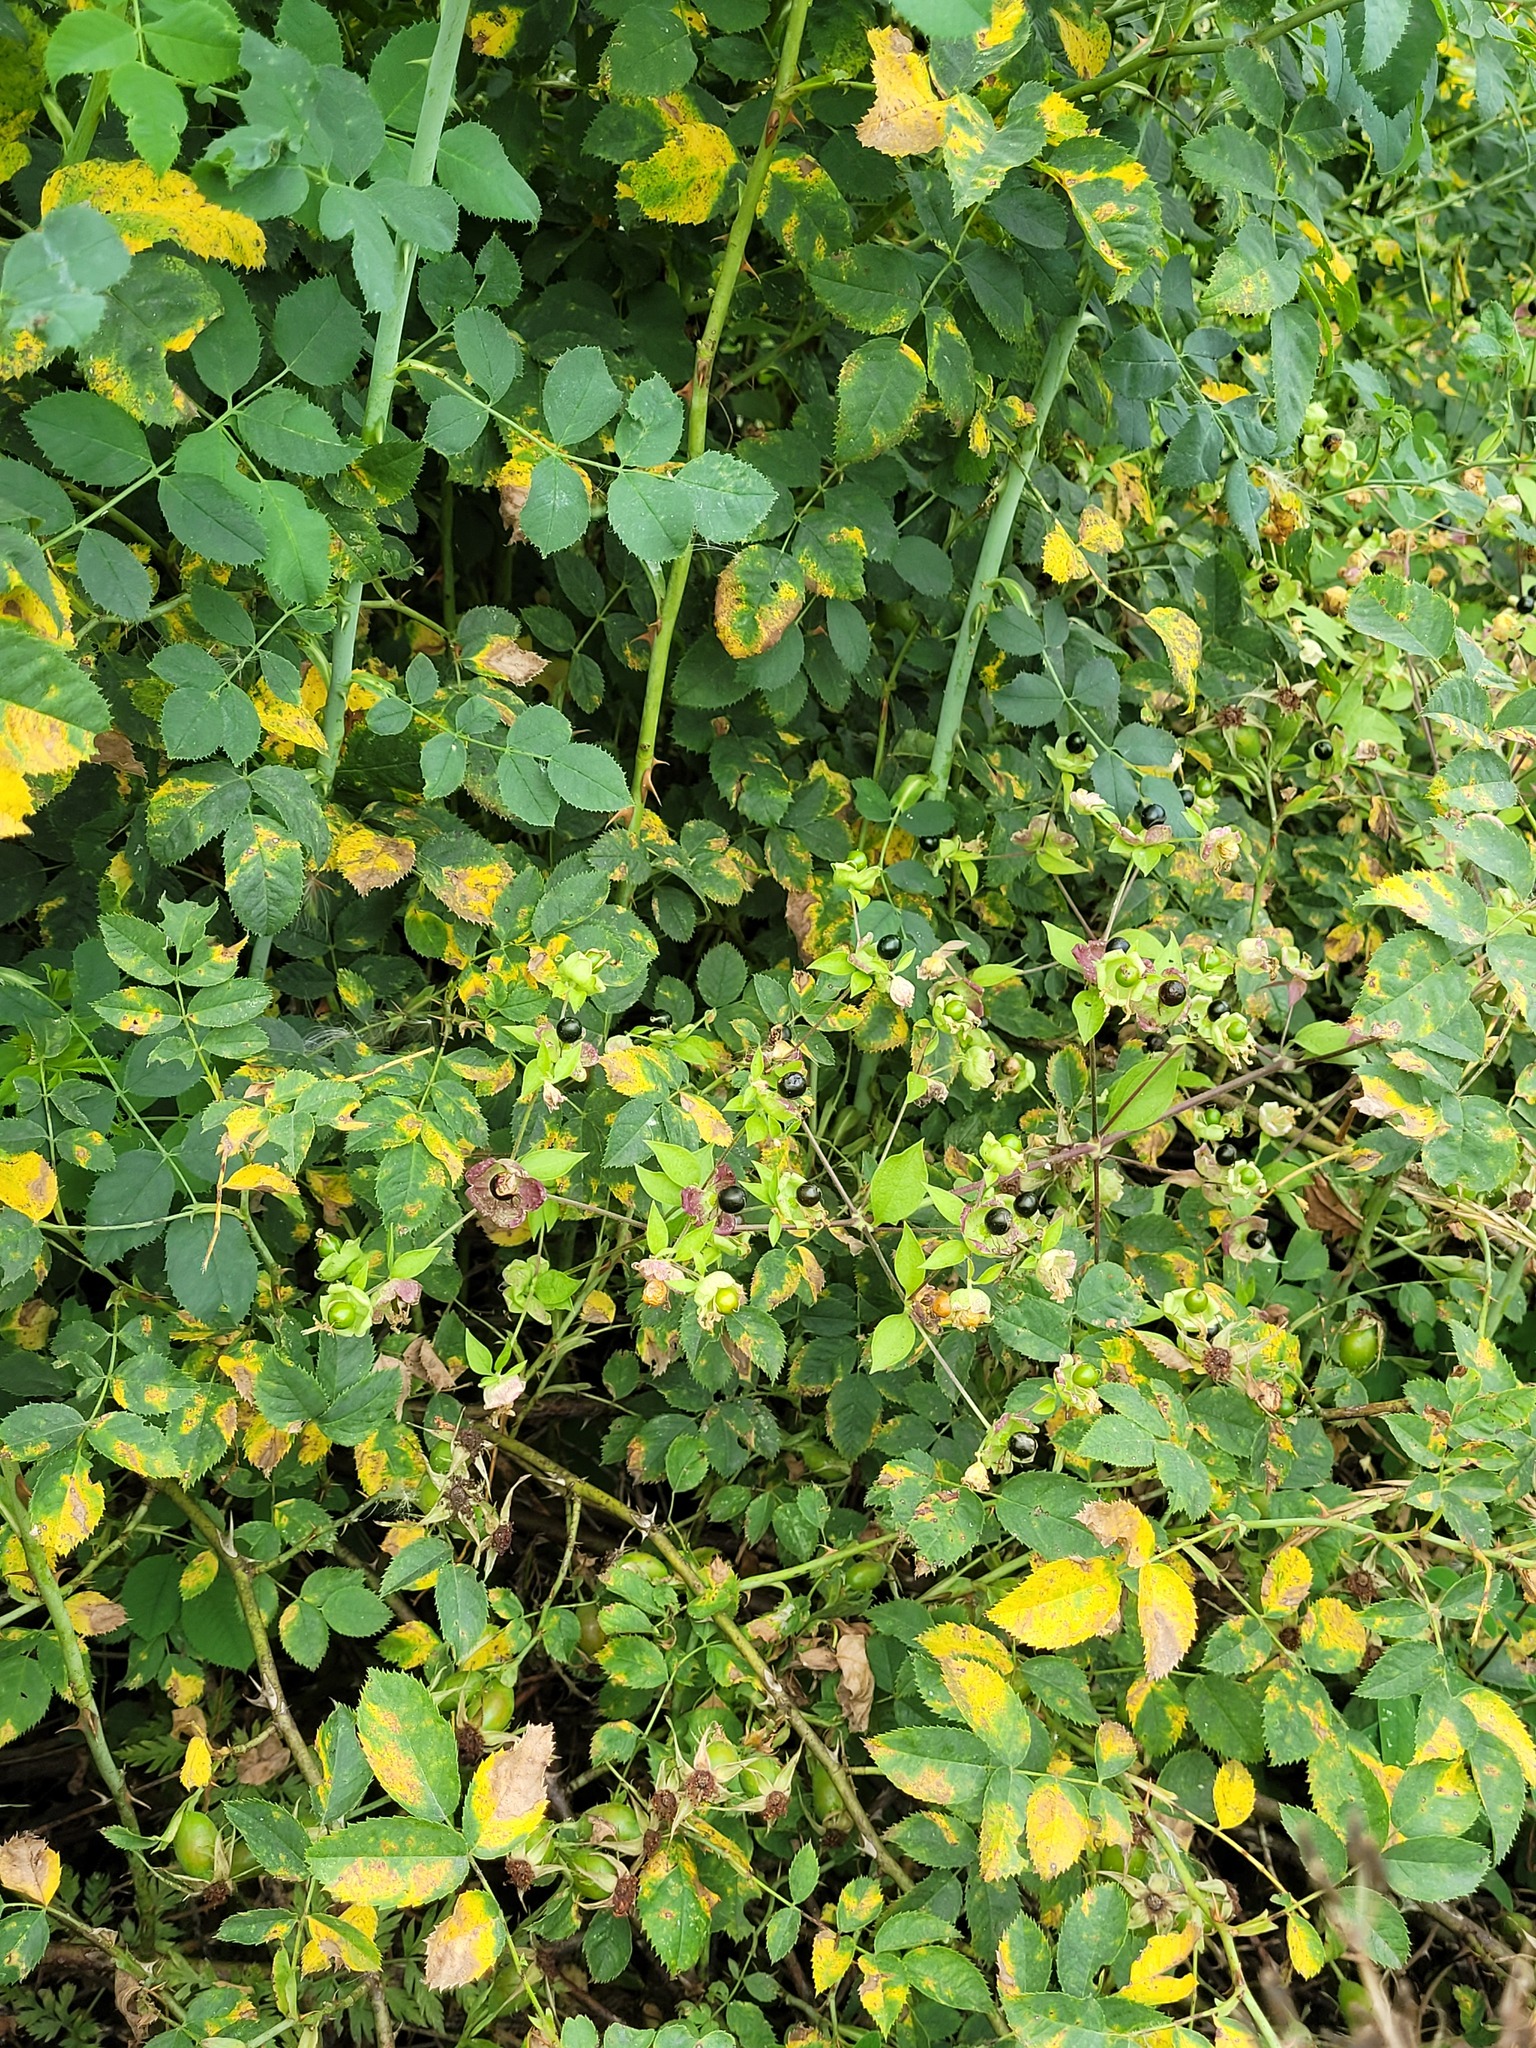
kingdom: Plantae
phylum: Tracheophyta
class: Magnoliopsida
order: Caryophyllales
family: Caryophyllaceae
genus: Silene
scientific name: Silene baccifera
